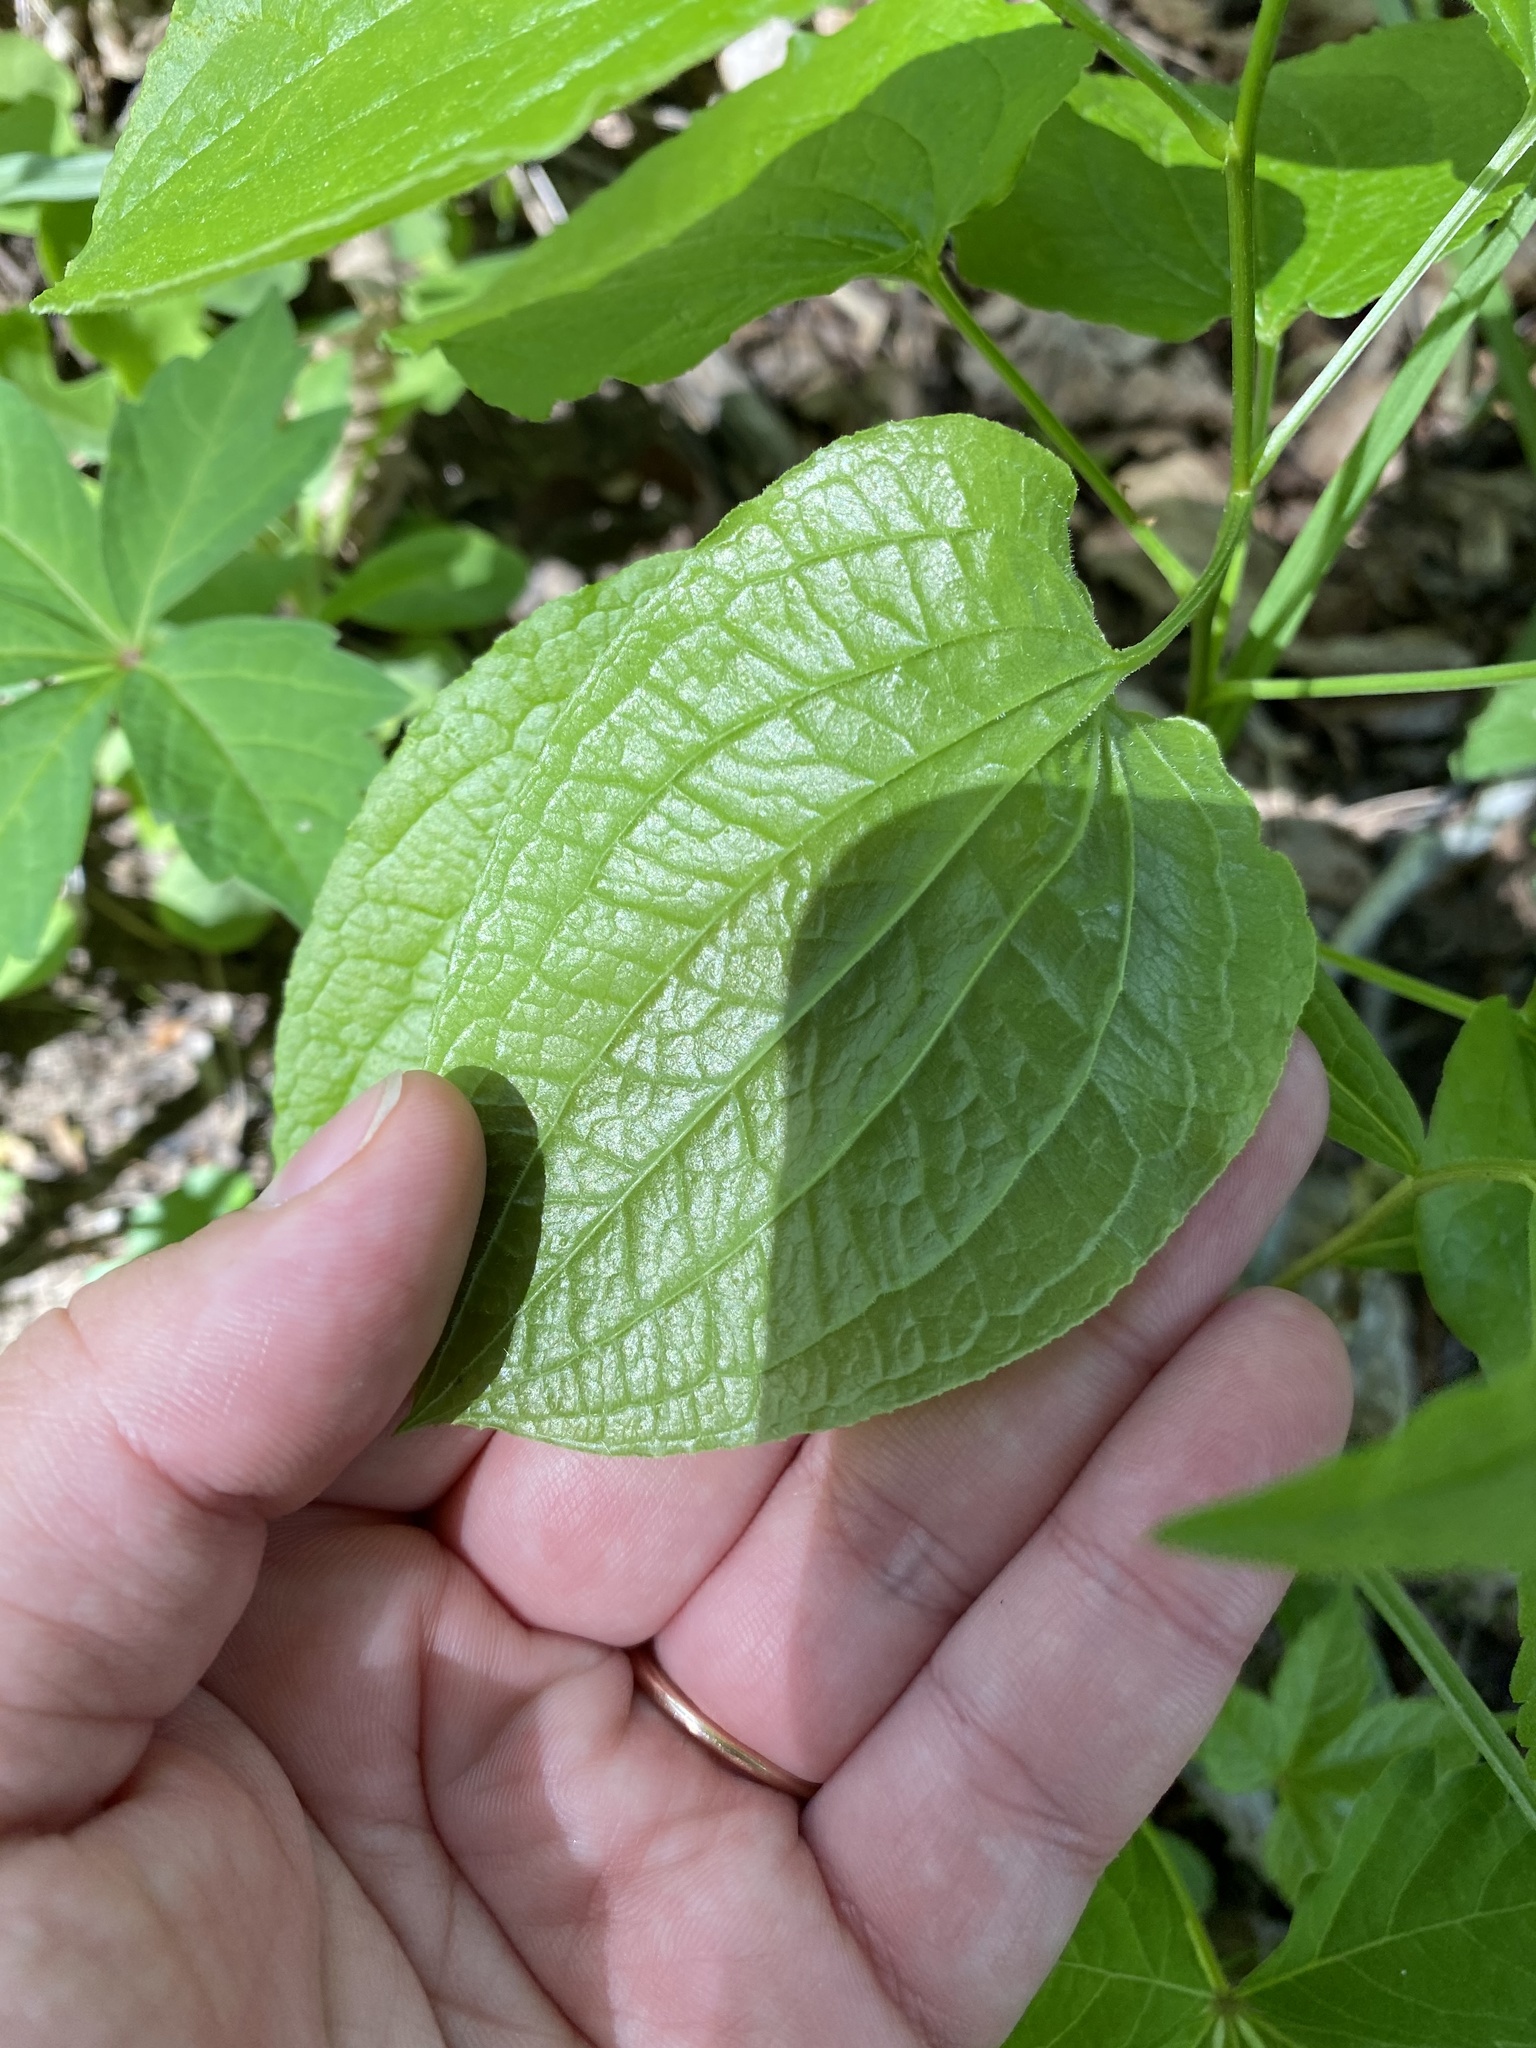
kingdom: Plantae
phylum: Tracheophyta
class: Liliopsida
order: Liliales
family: Smilacaceae
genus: Smilax
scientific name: Smilax pulverulenta
